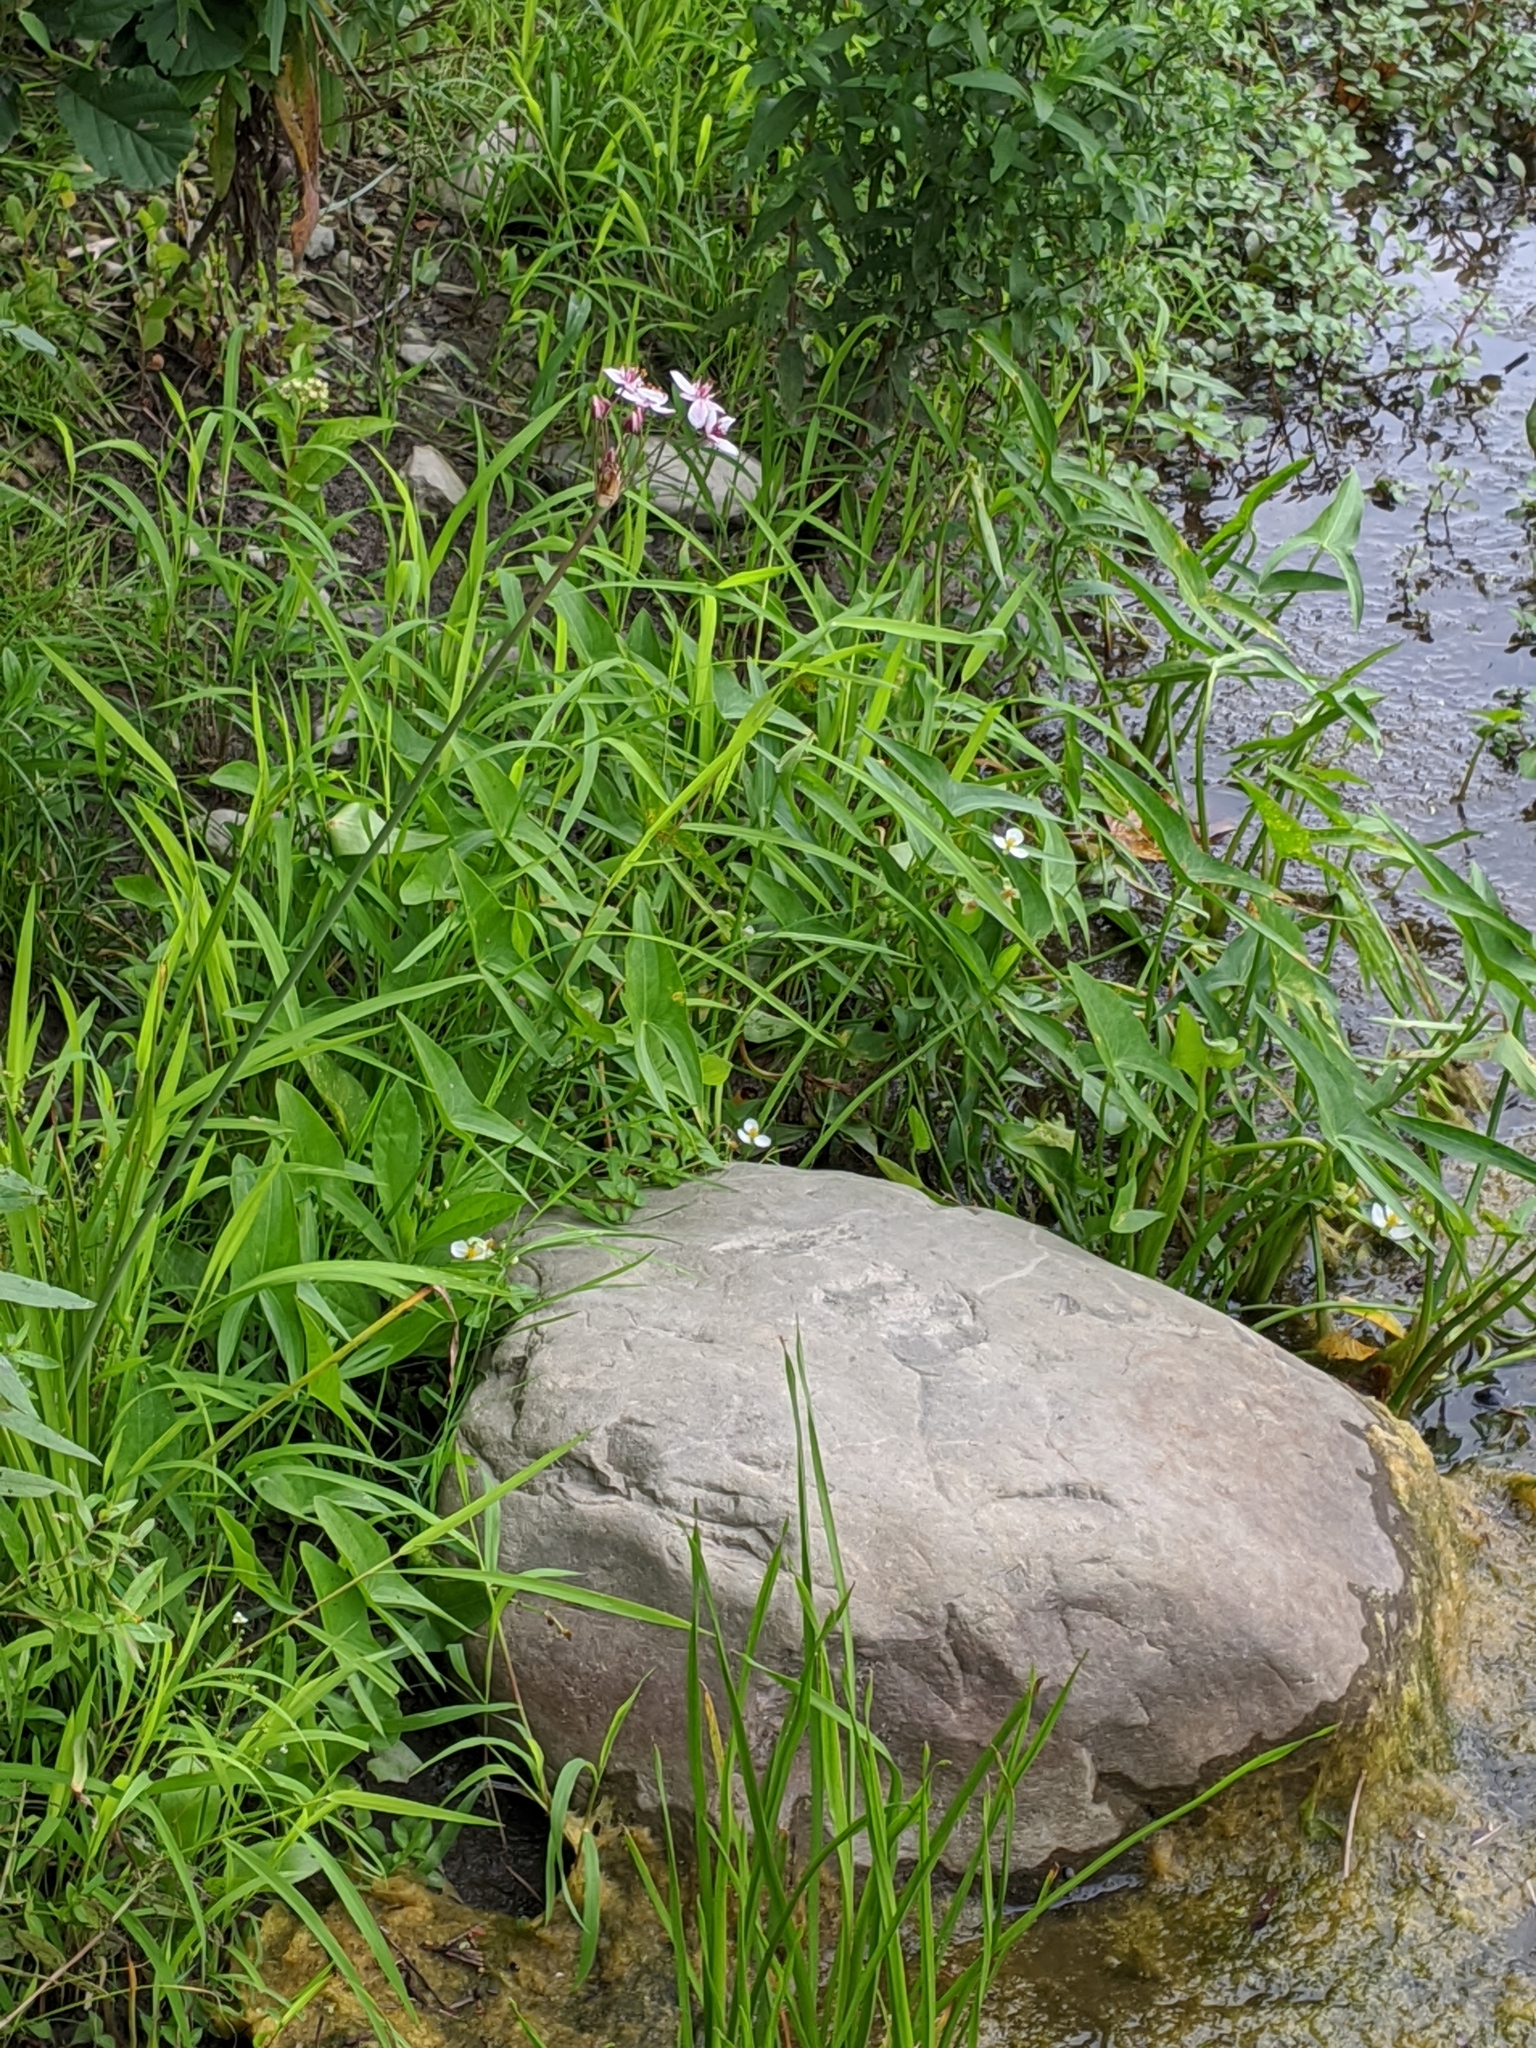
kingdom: Plantae
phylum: Tracheophyta
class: Liliopsida
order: Alismatales
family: Butomaceae
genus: Butomus
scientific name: Butomus umbellatus
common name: Flowering-rush
